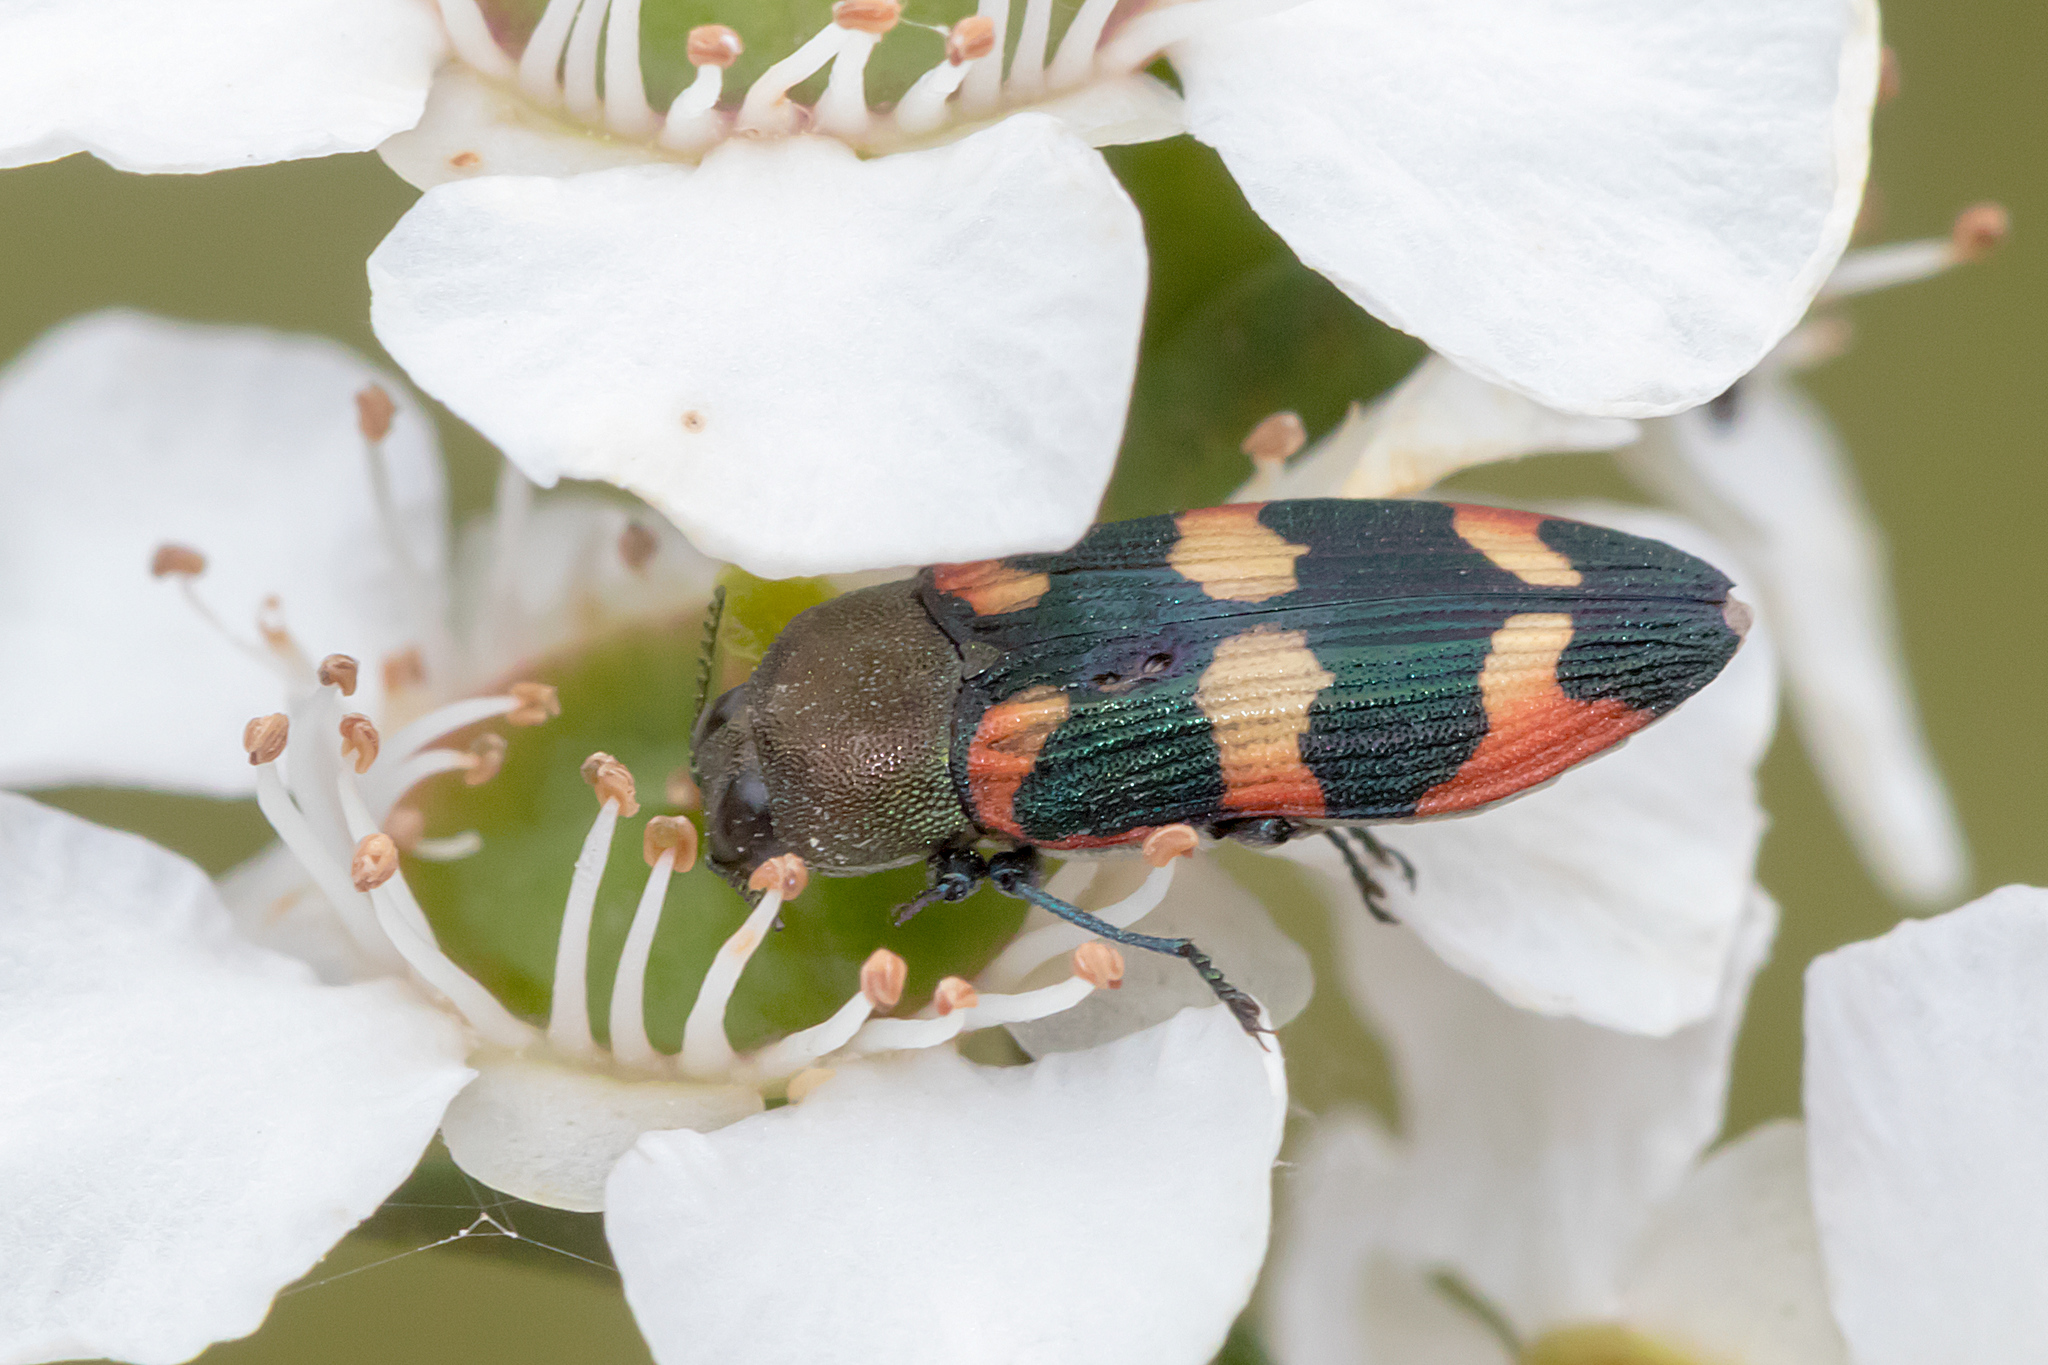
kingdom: Animalia
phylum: Arthropoda
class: Insecta
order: Coleoptera
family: Buprestidae
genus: Castiarina
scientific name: Castiarina sexplagiata
